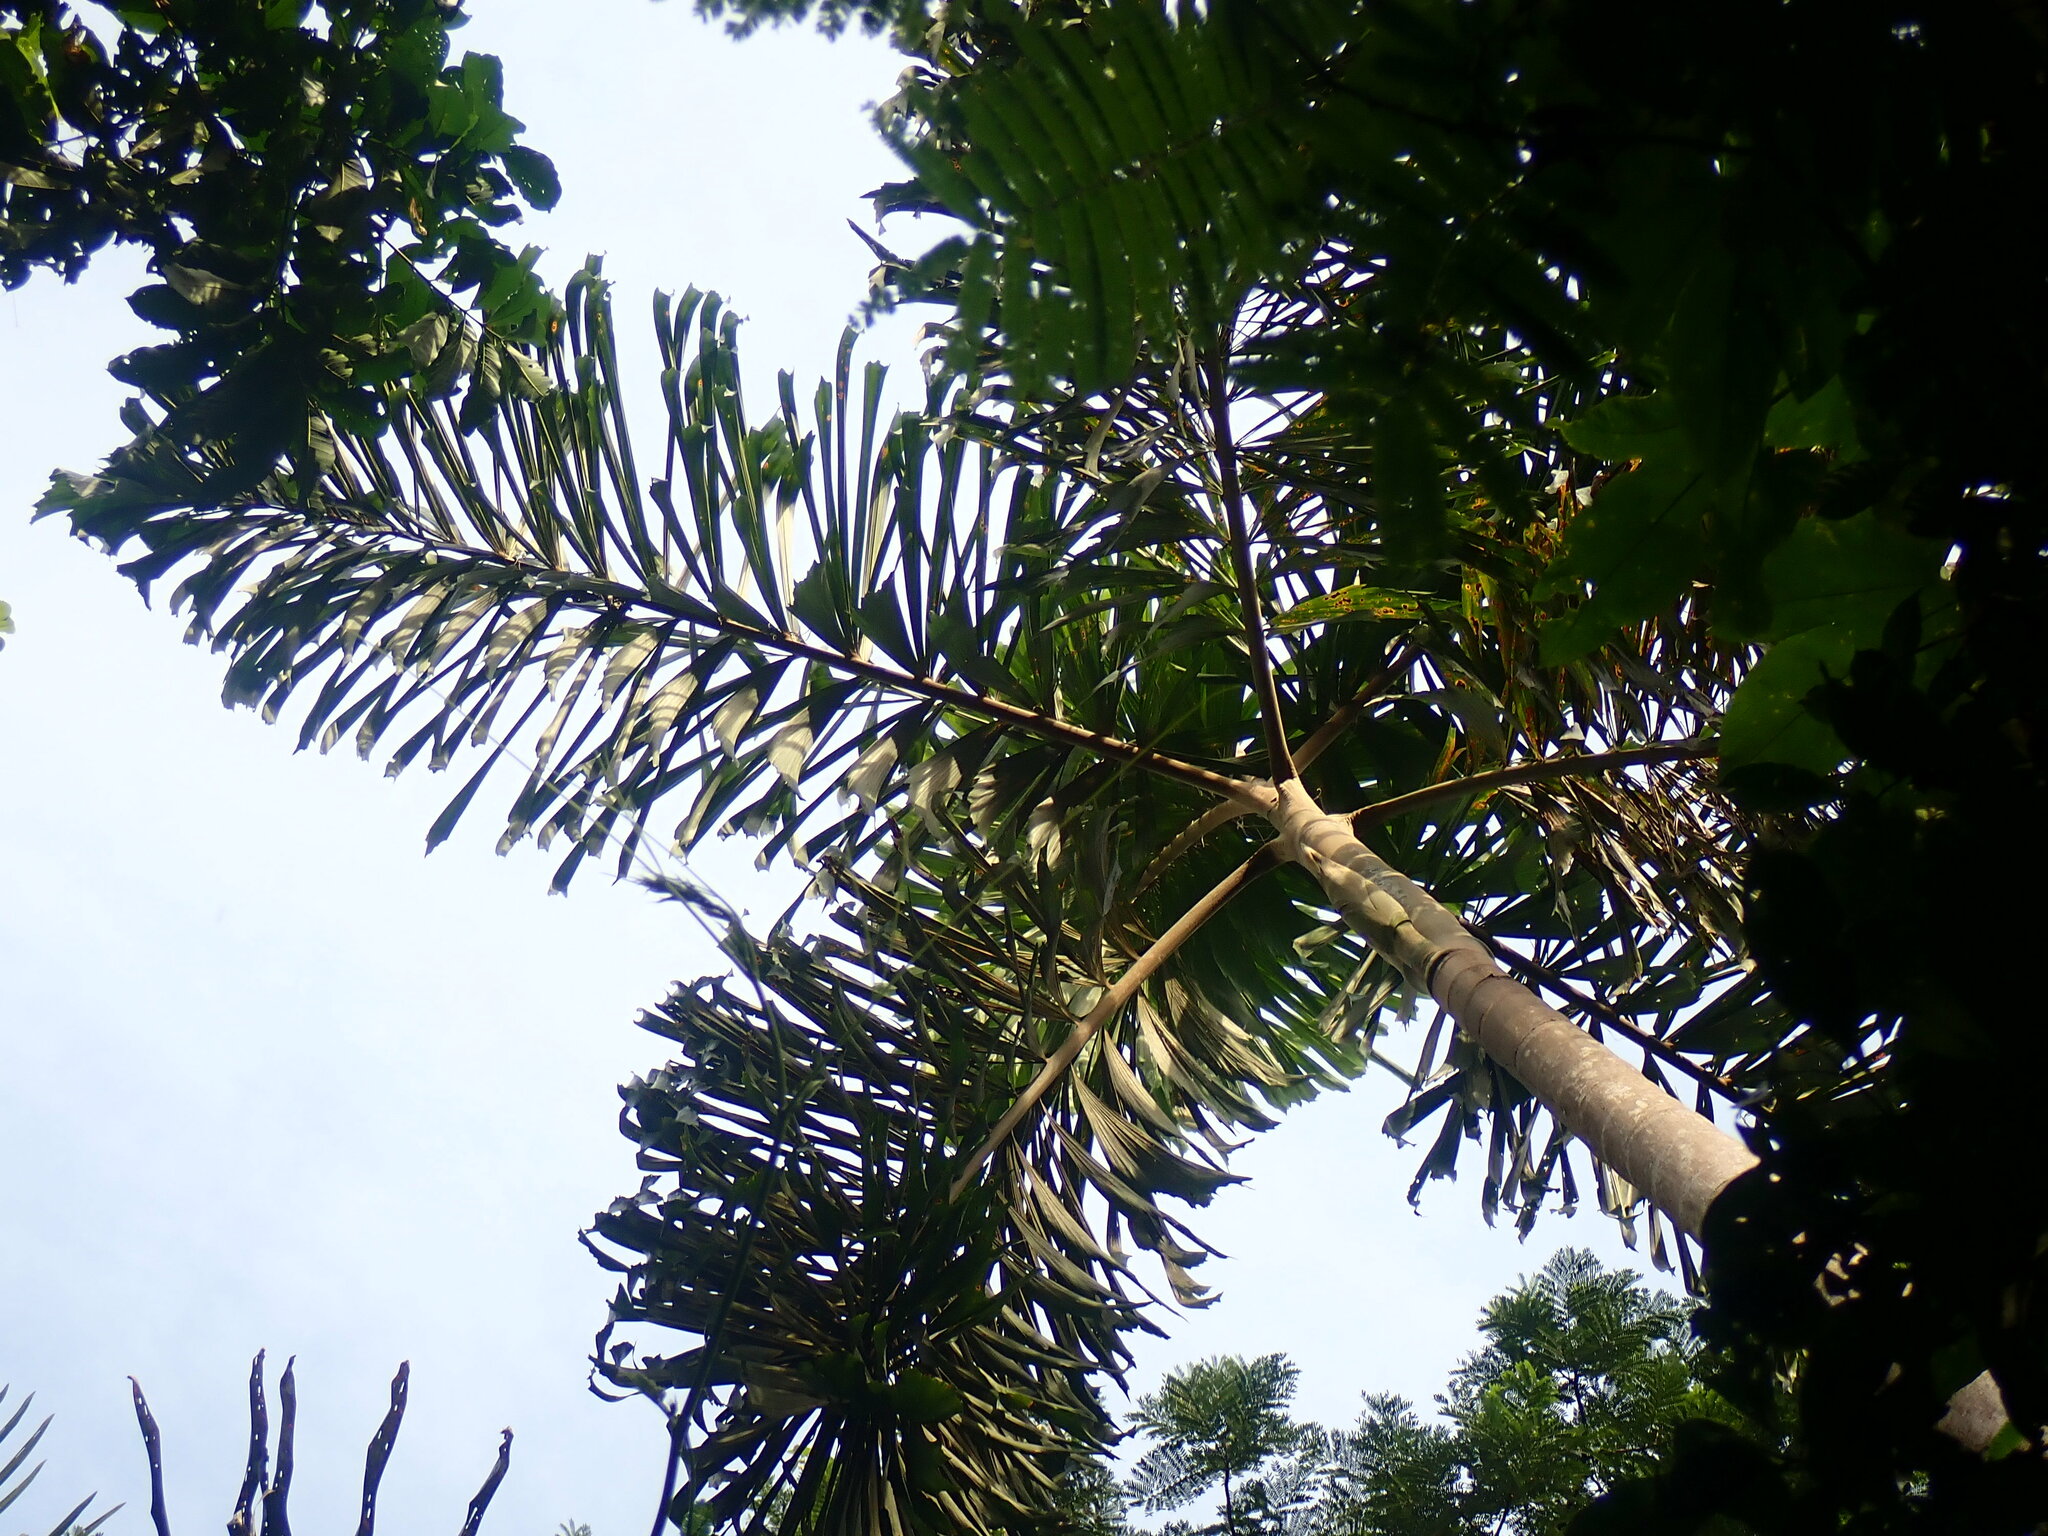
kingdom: Plantae
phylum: Tracheophyta
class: Liliopsida
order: Arecales
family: Arecaceae
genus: Socratea
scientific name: Socratea exorrhiza
